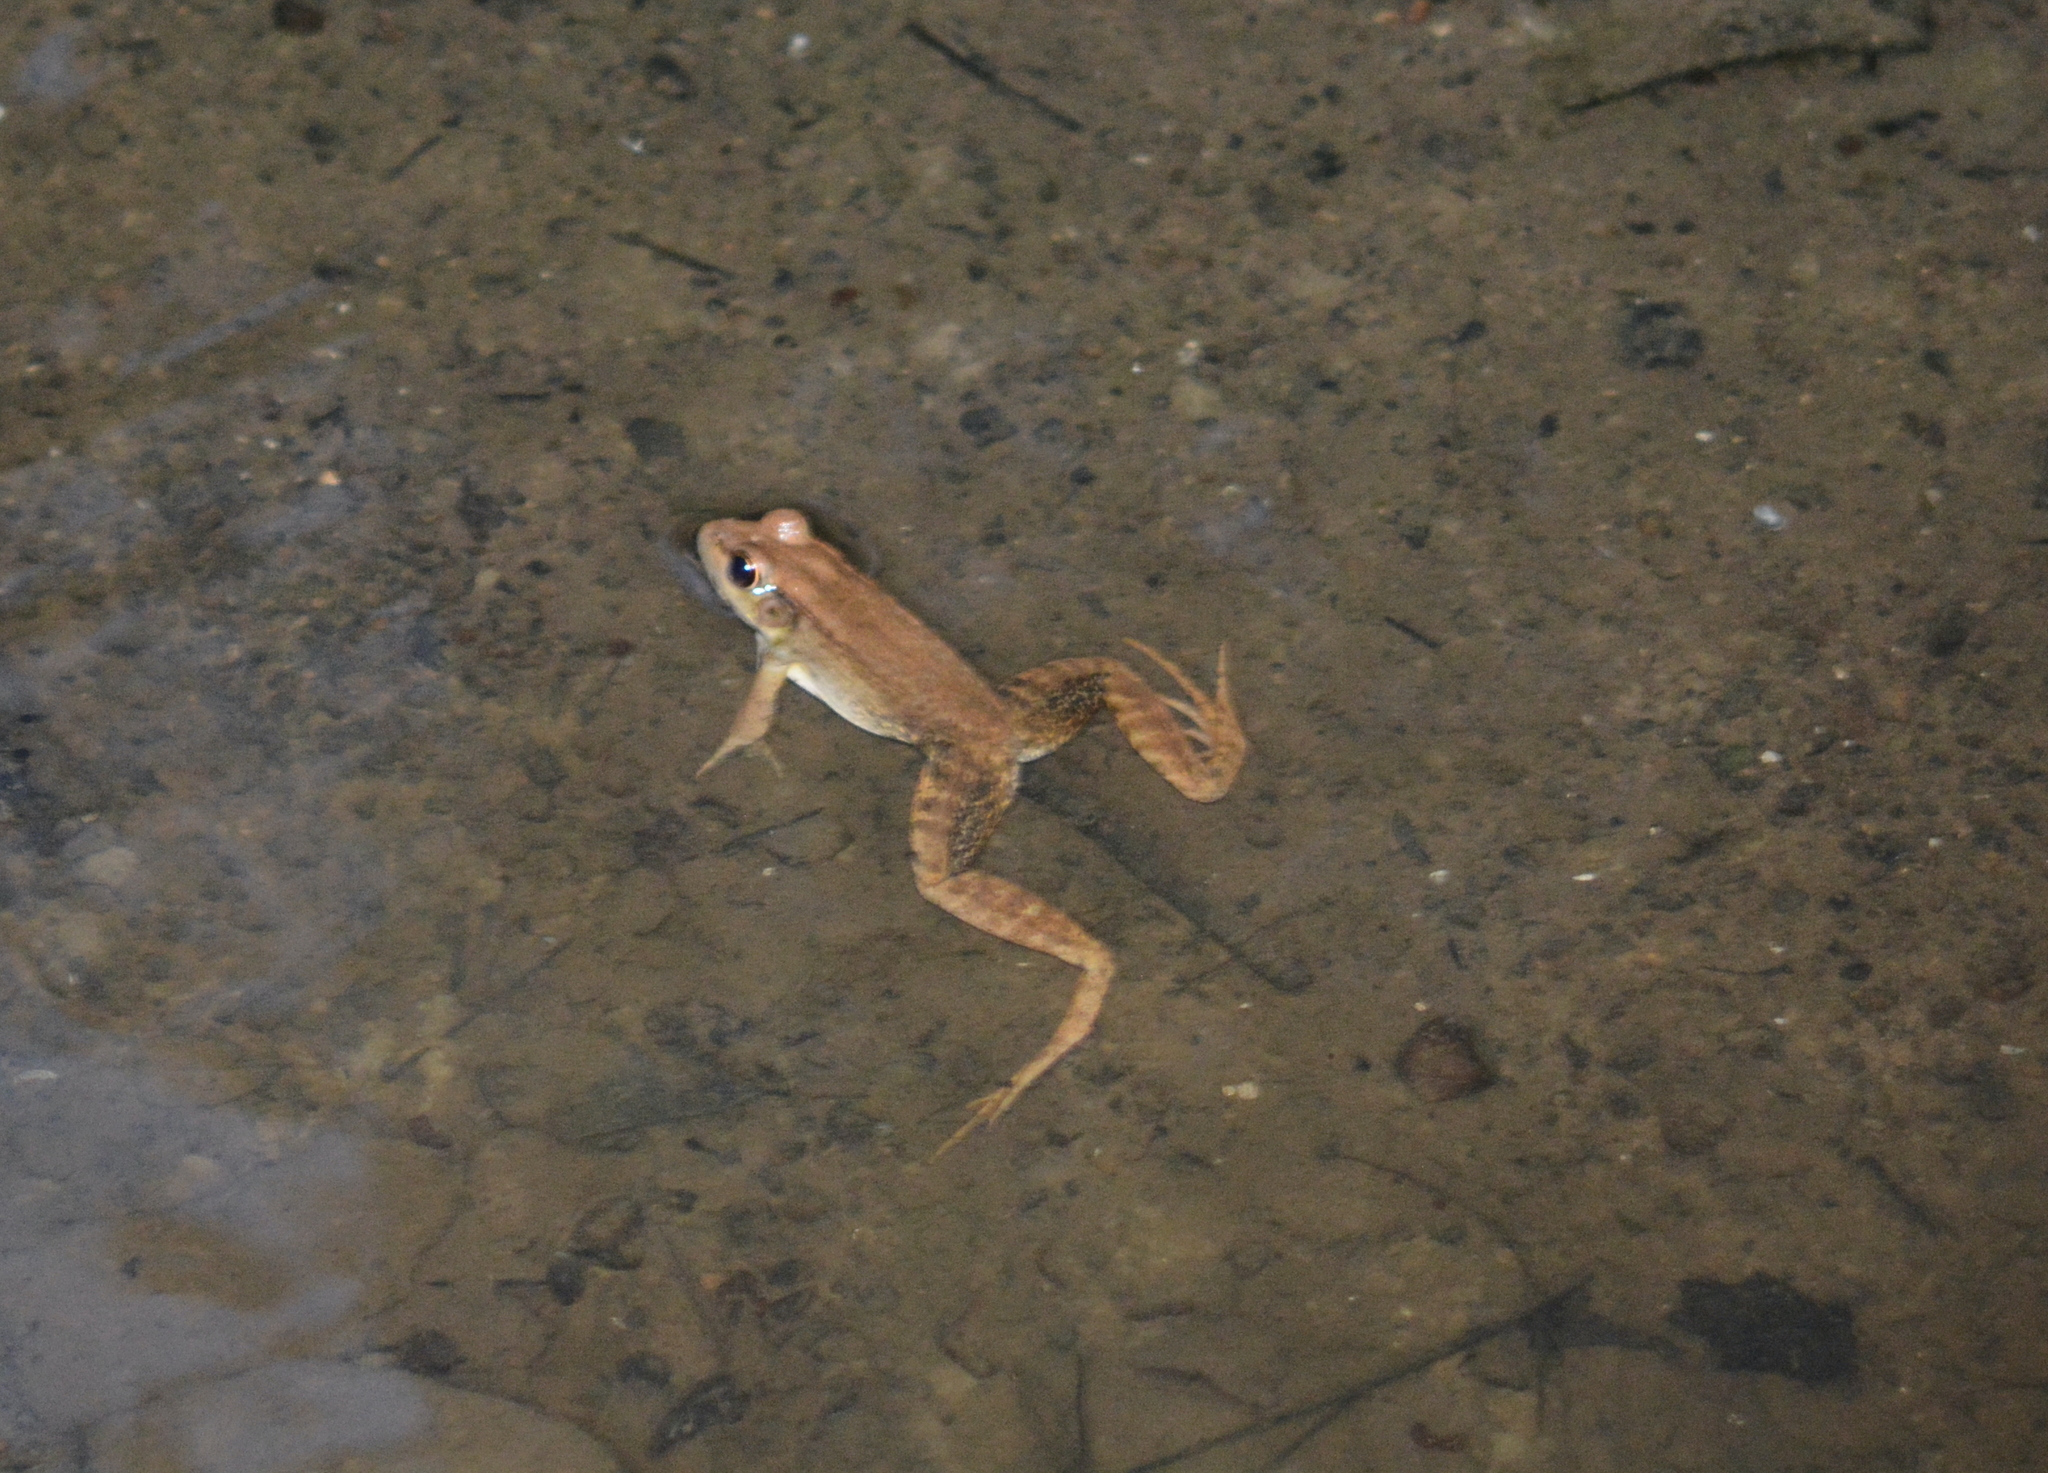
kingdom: Animalia
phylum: Chordata
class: Amphibia
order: Anura
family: Ranidae
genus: Lithobates
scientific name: Lithobates clamitans
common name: Green frog
